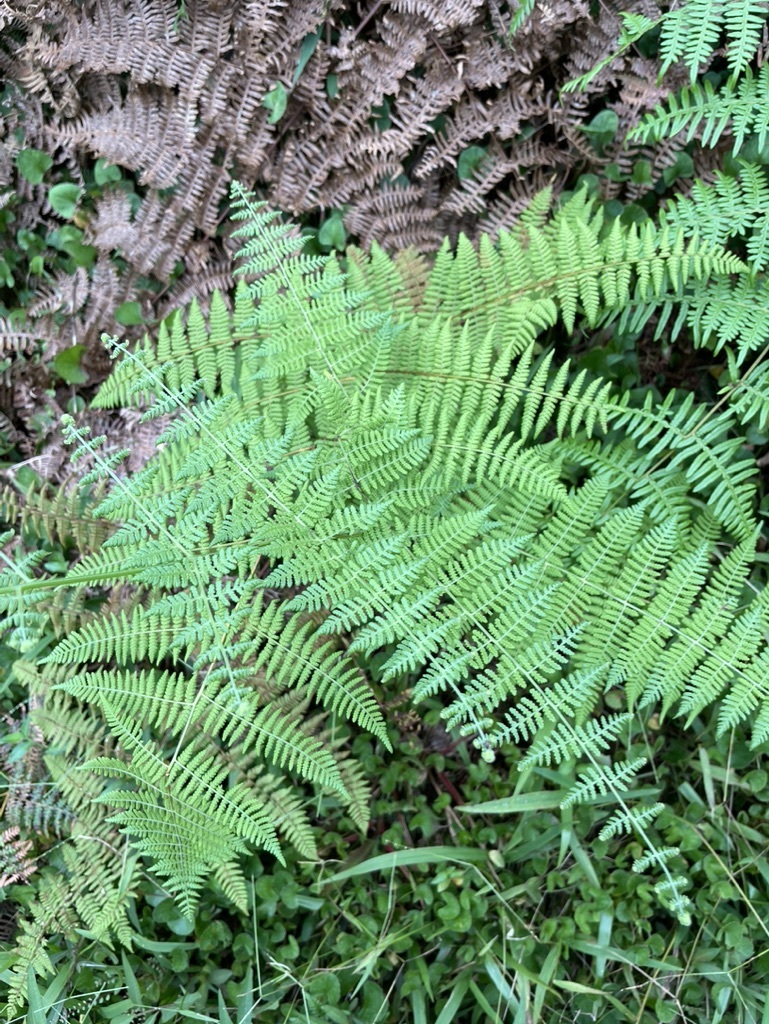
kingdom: Plantae
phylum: Tracheophyta
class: Polypodiopsida
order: Polypodiales
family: Dennstaedtiaceae
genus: Pteridium
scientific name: Pteridium esculentum
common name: Bracken fern
